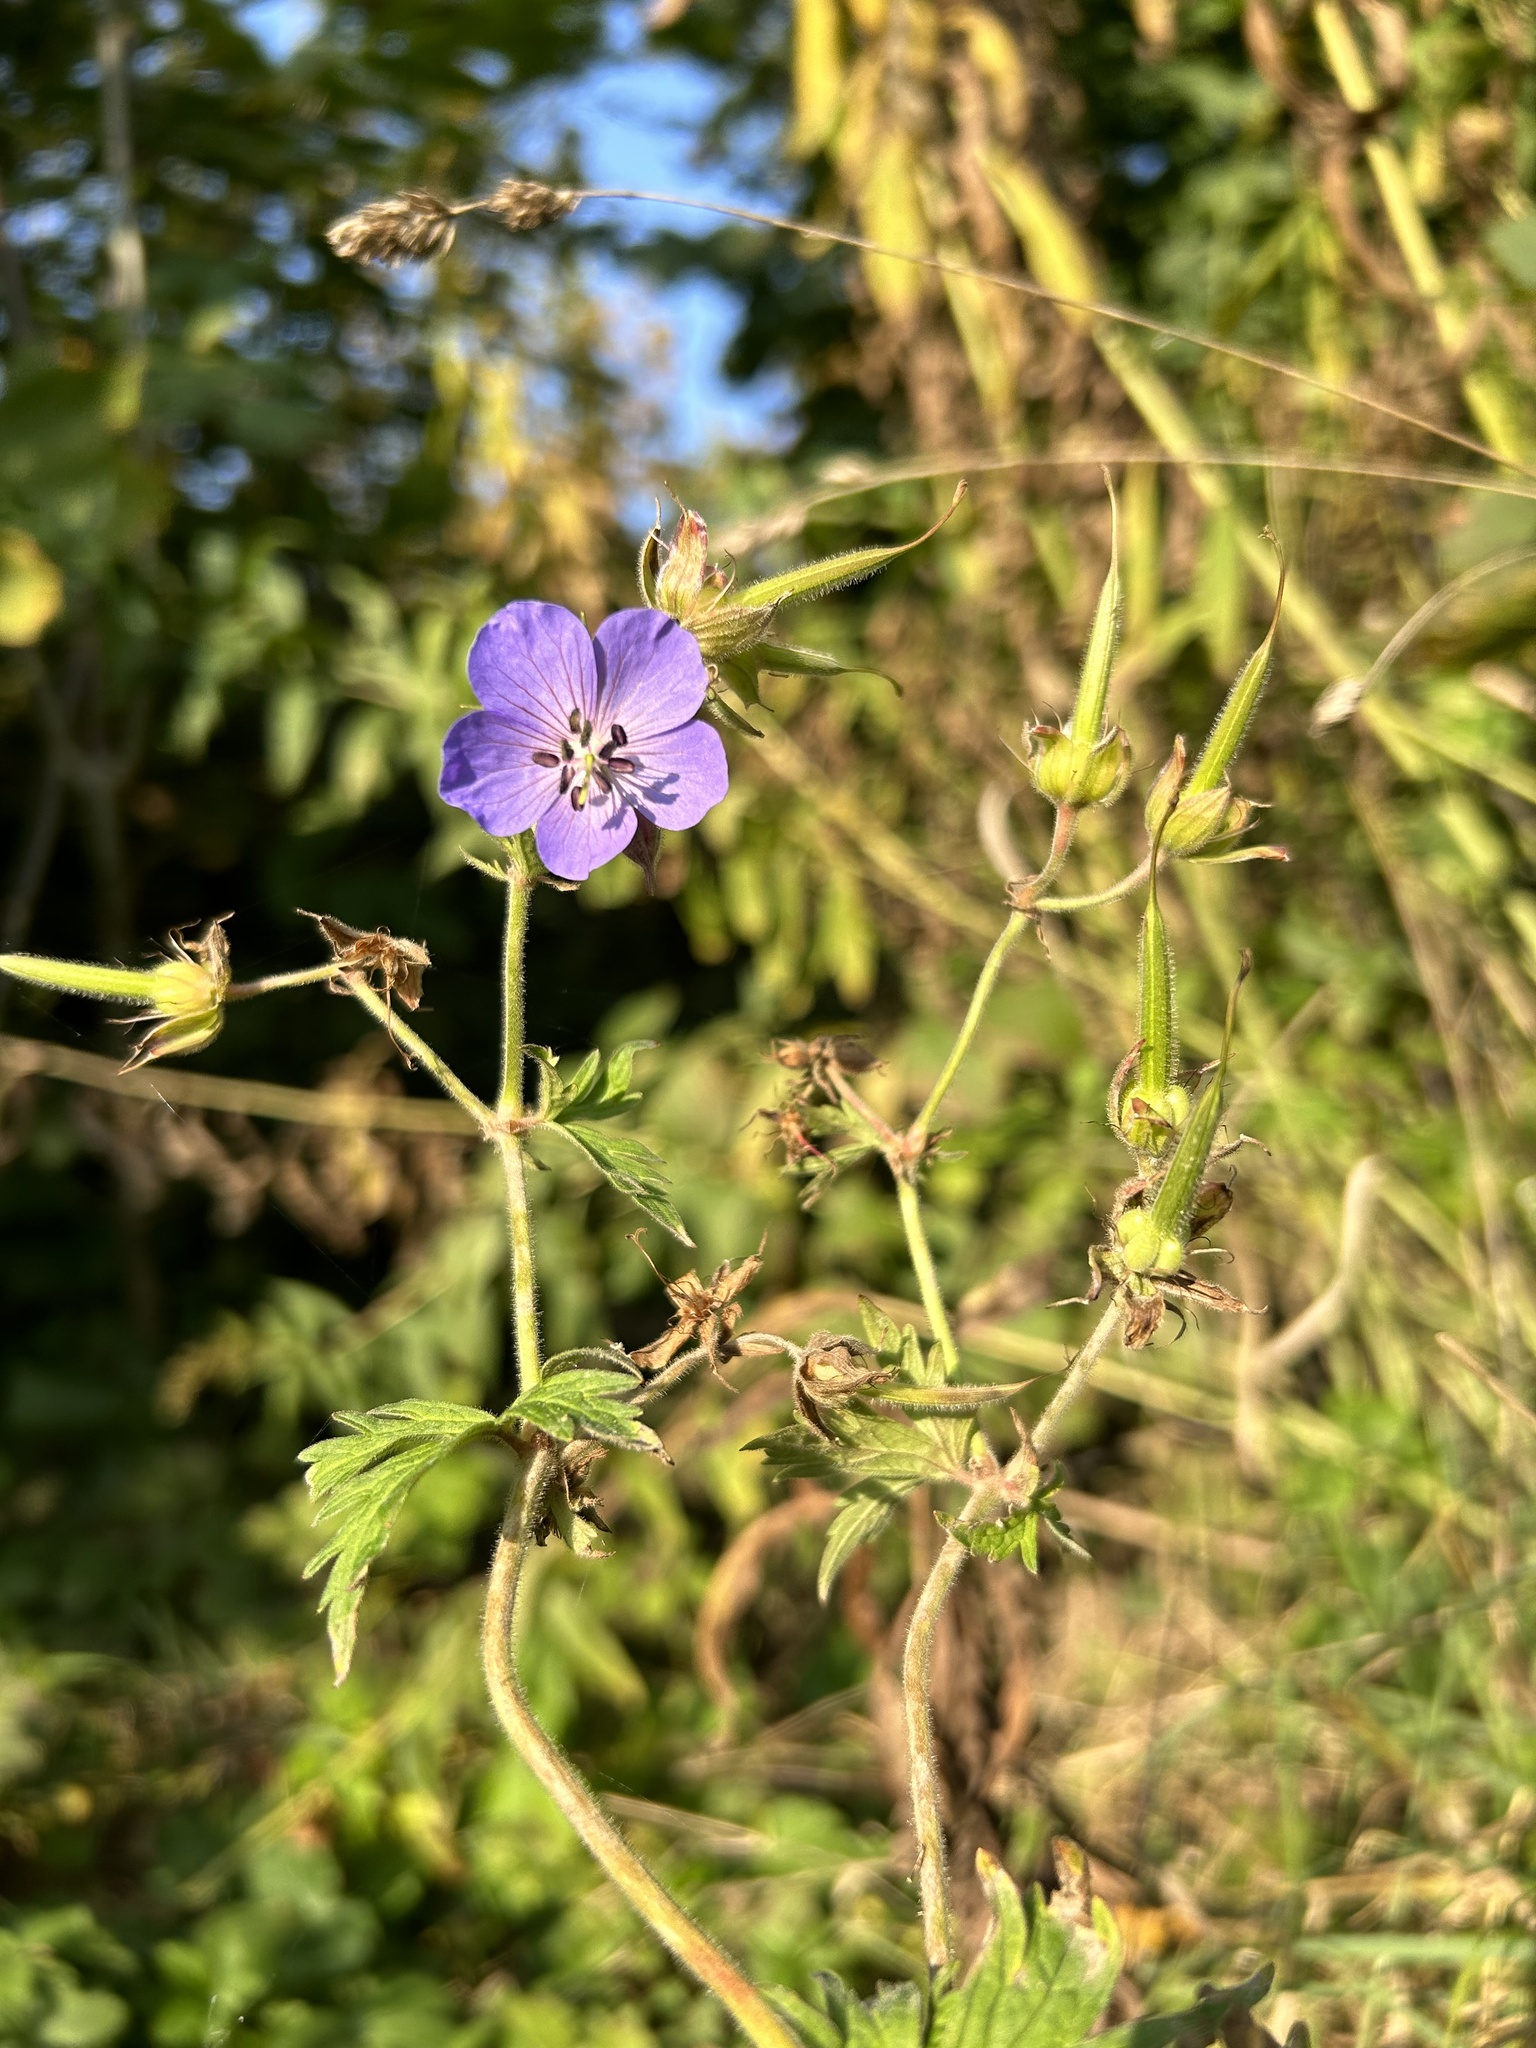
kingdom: Plantae
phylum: Tracheophyta
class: Magnoliopsida
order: Geraniales
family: Geraniaceae
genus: Geranium
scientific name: Geranium pratense
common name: Meadow crane's-bill
